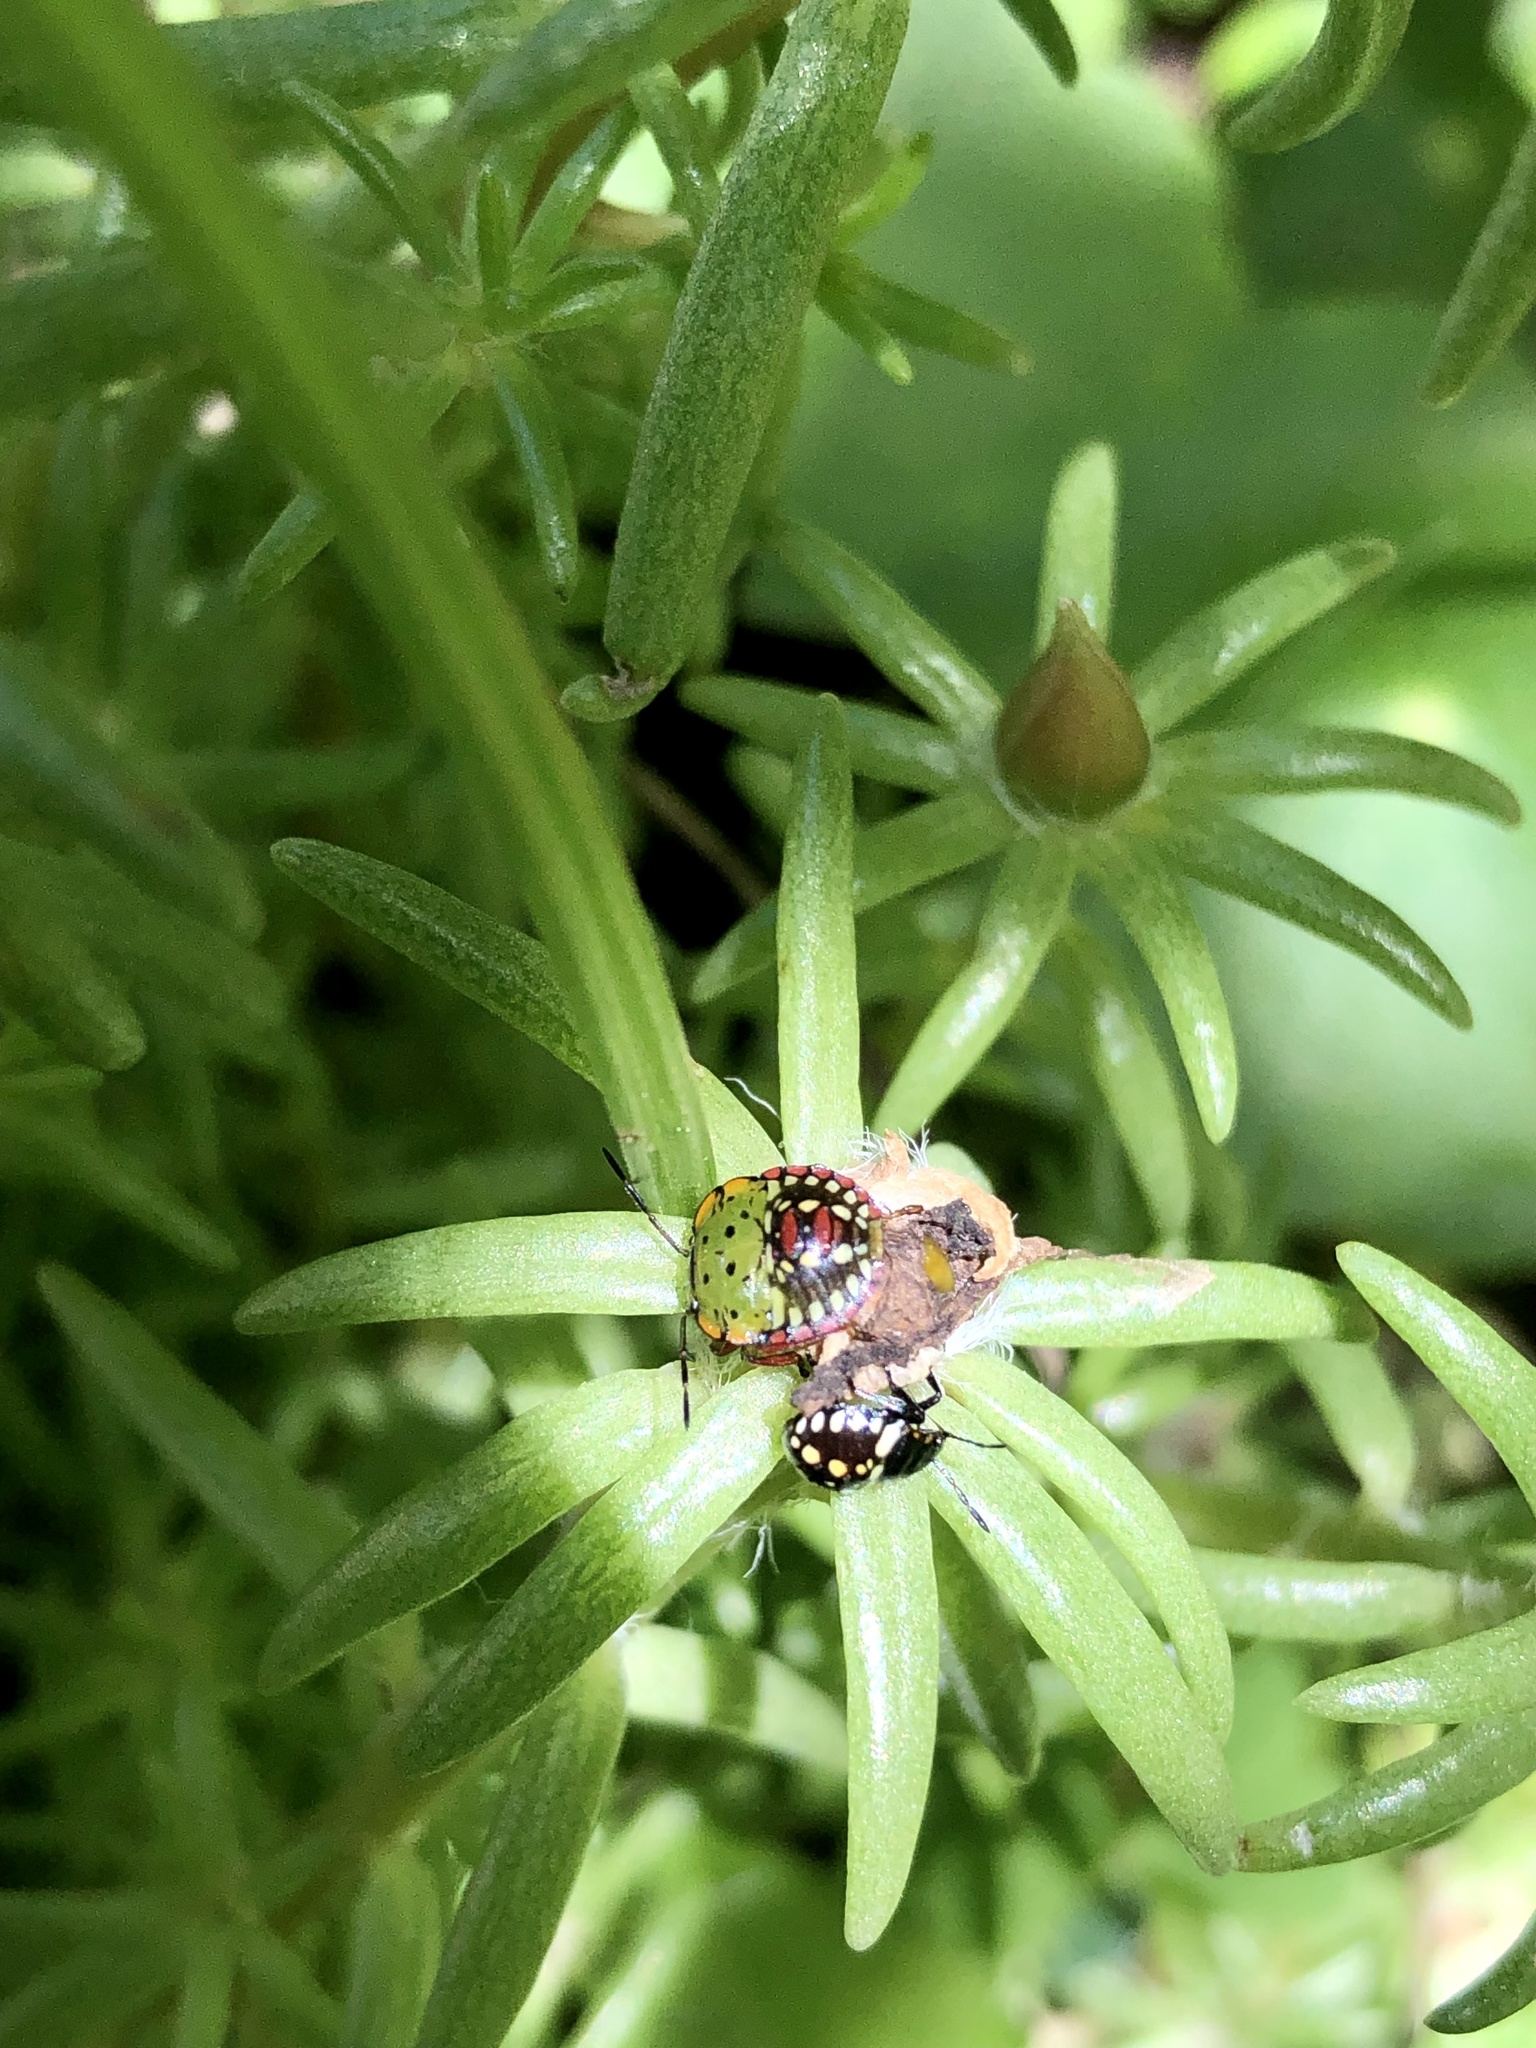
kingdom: Animalia
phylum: Arthropoda
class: Insecta
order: Hemiptera
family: Pentatomidae
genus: Nezara
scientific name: Nezara viridula
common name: Southern green stink bug
